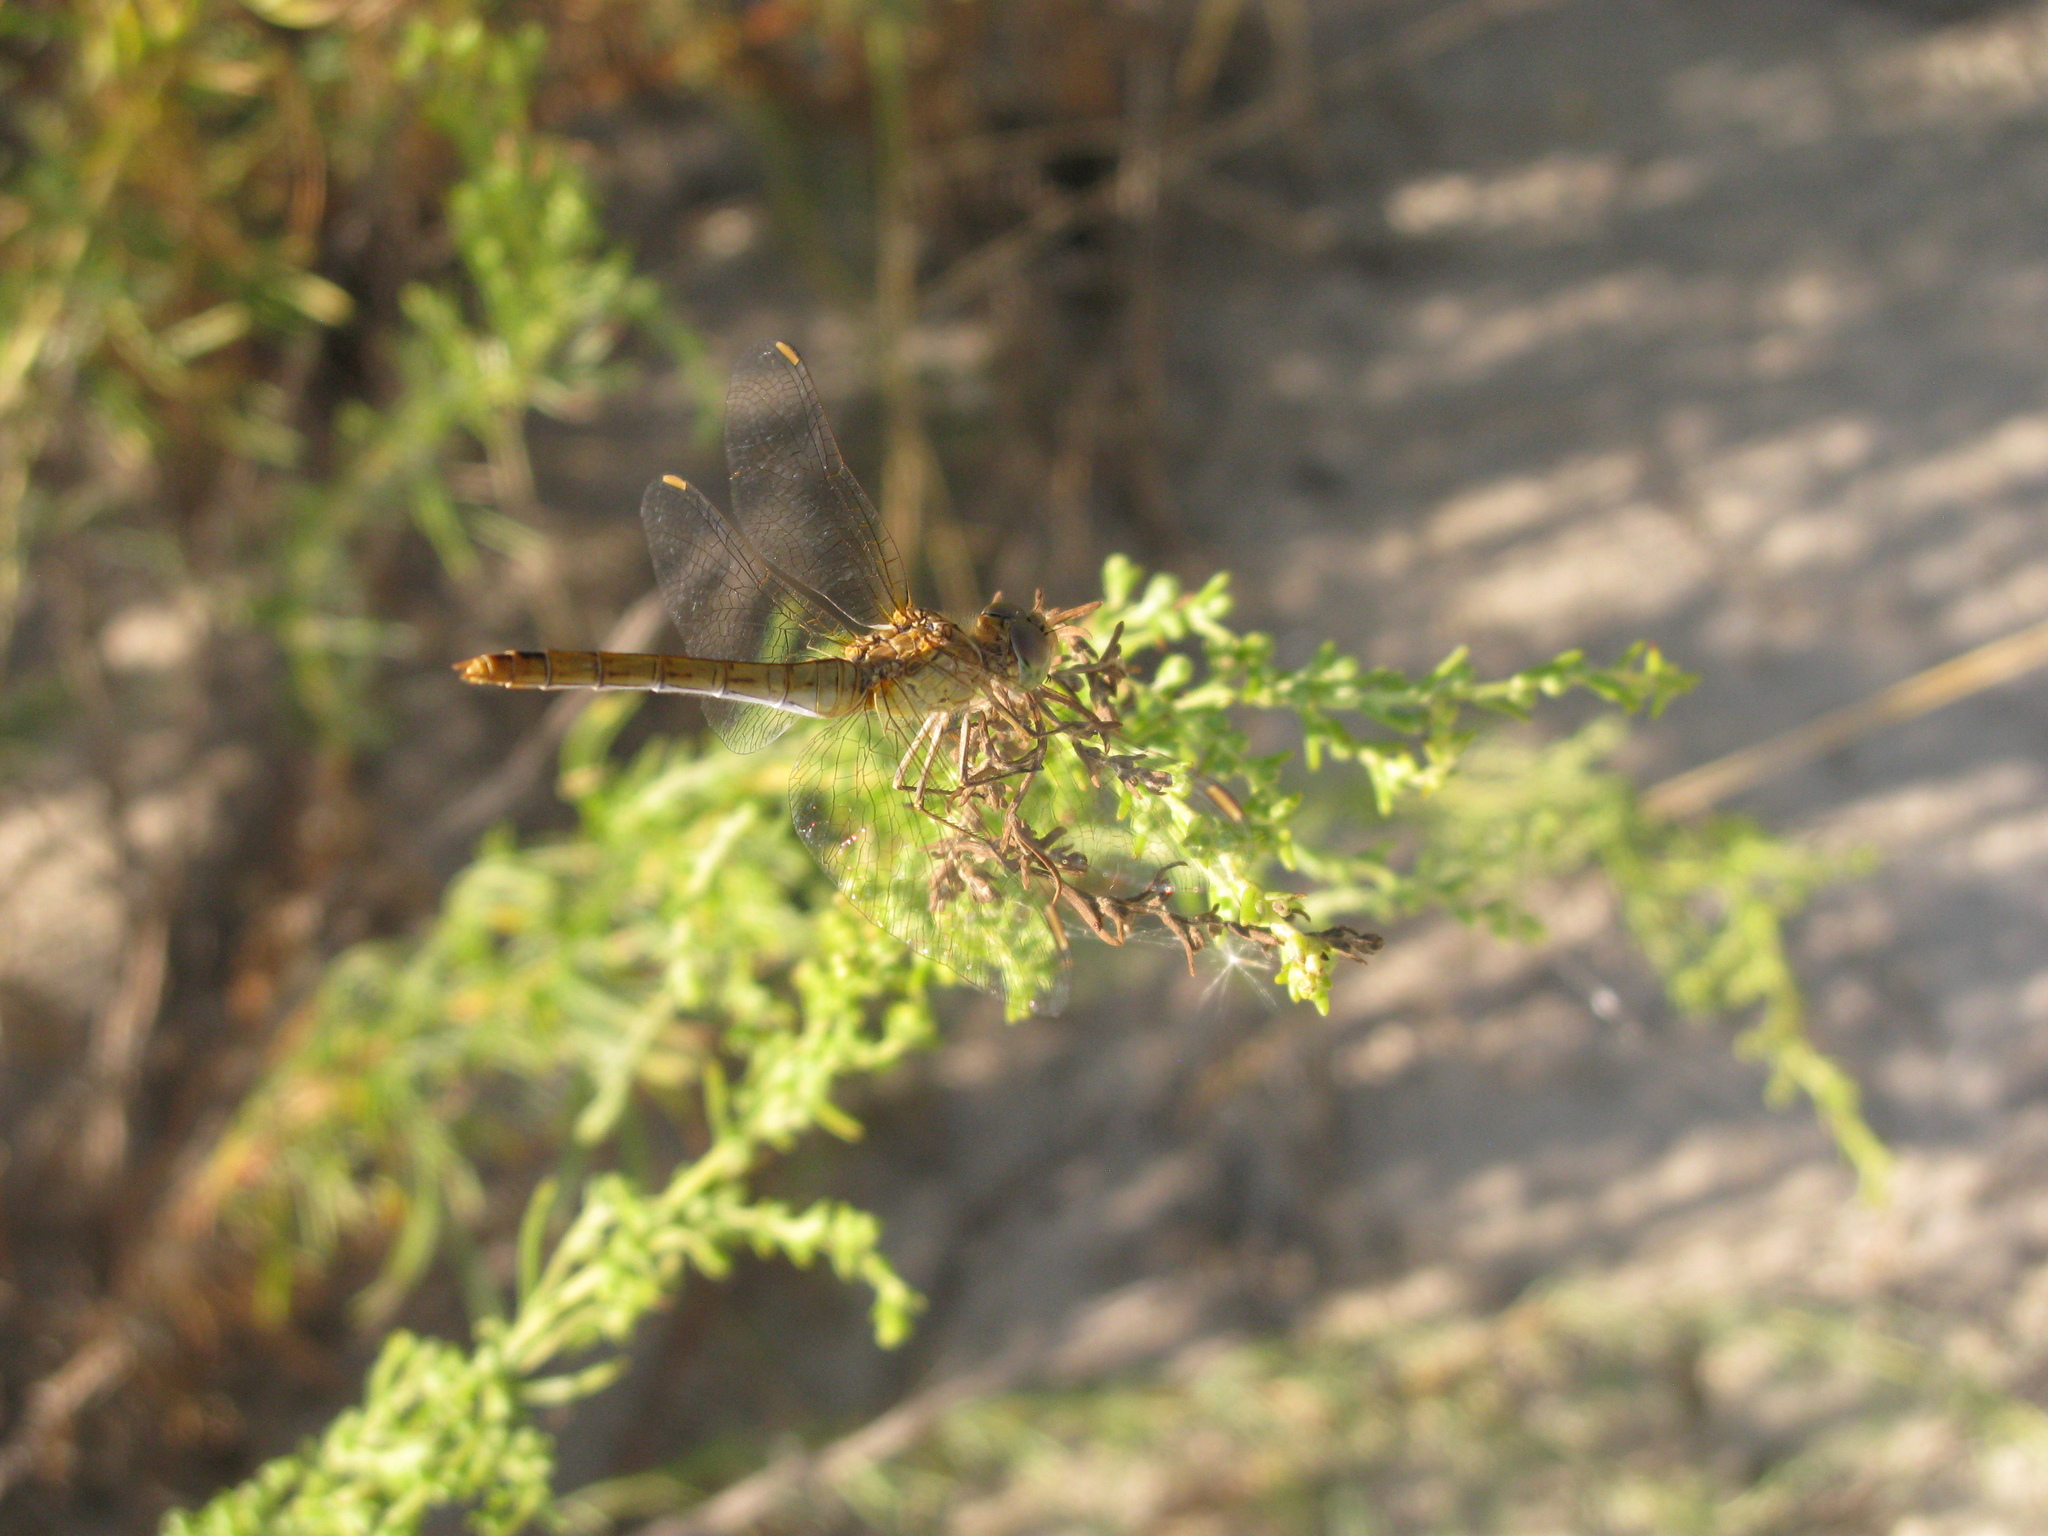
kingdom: Animalia
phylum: Arthropoda
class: Insecta
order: Odonata
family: Libellulidae
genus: Sympetrum
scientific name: Sympetrum meridionale
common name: Southern darter
